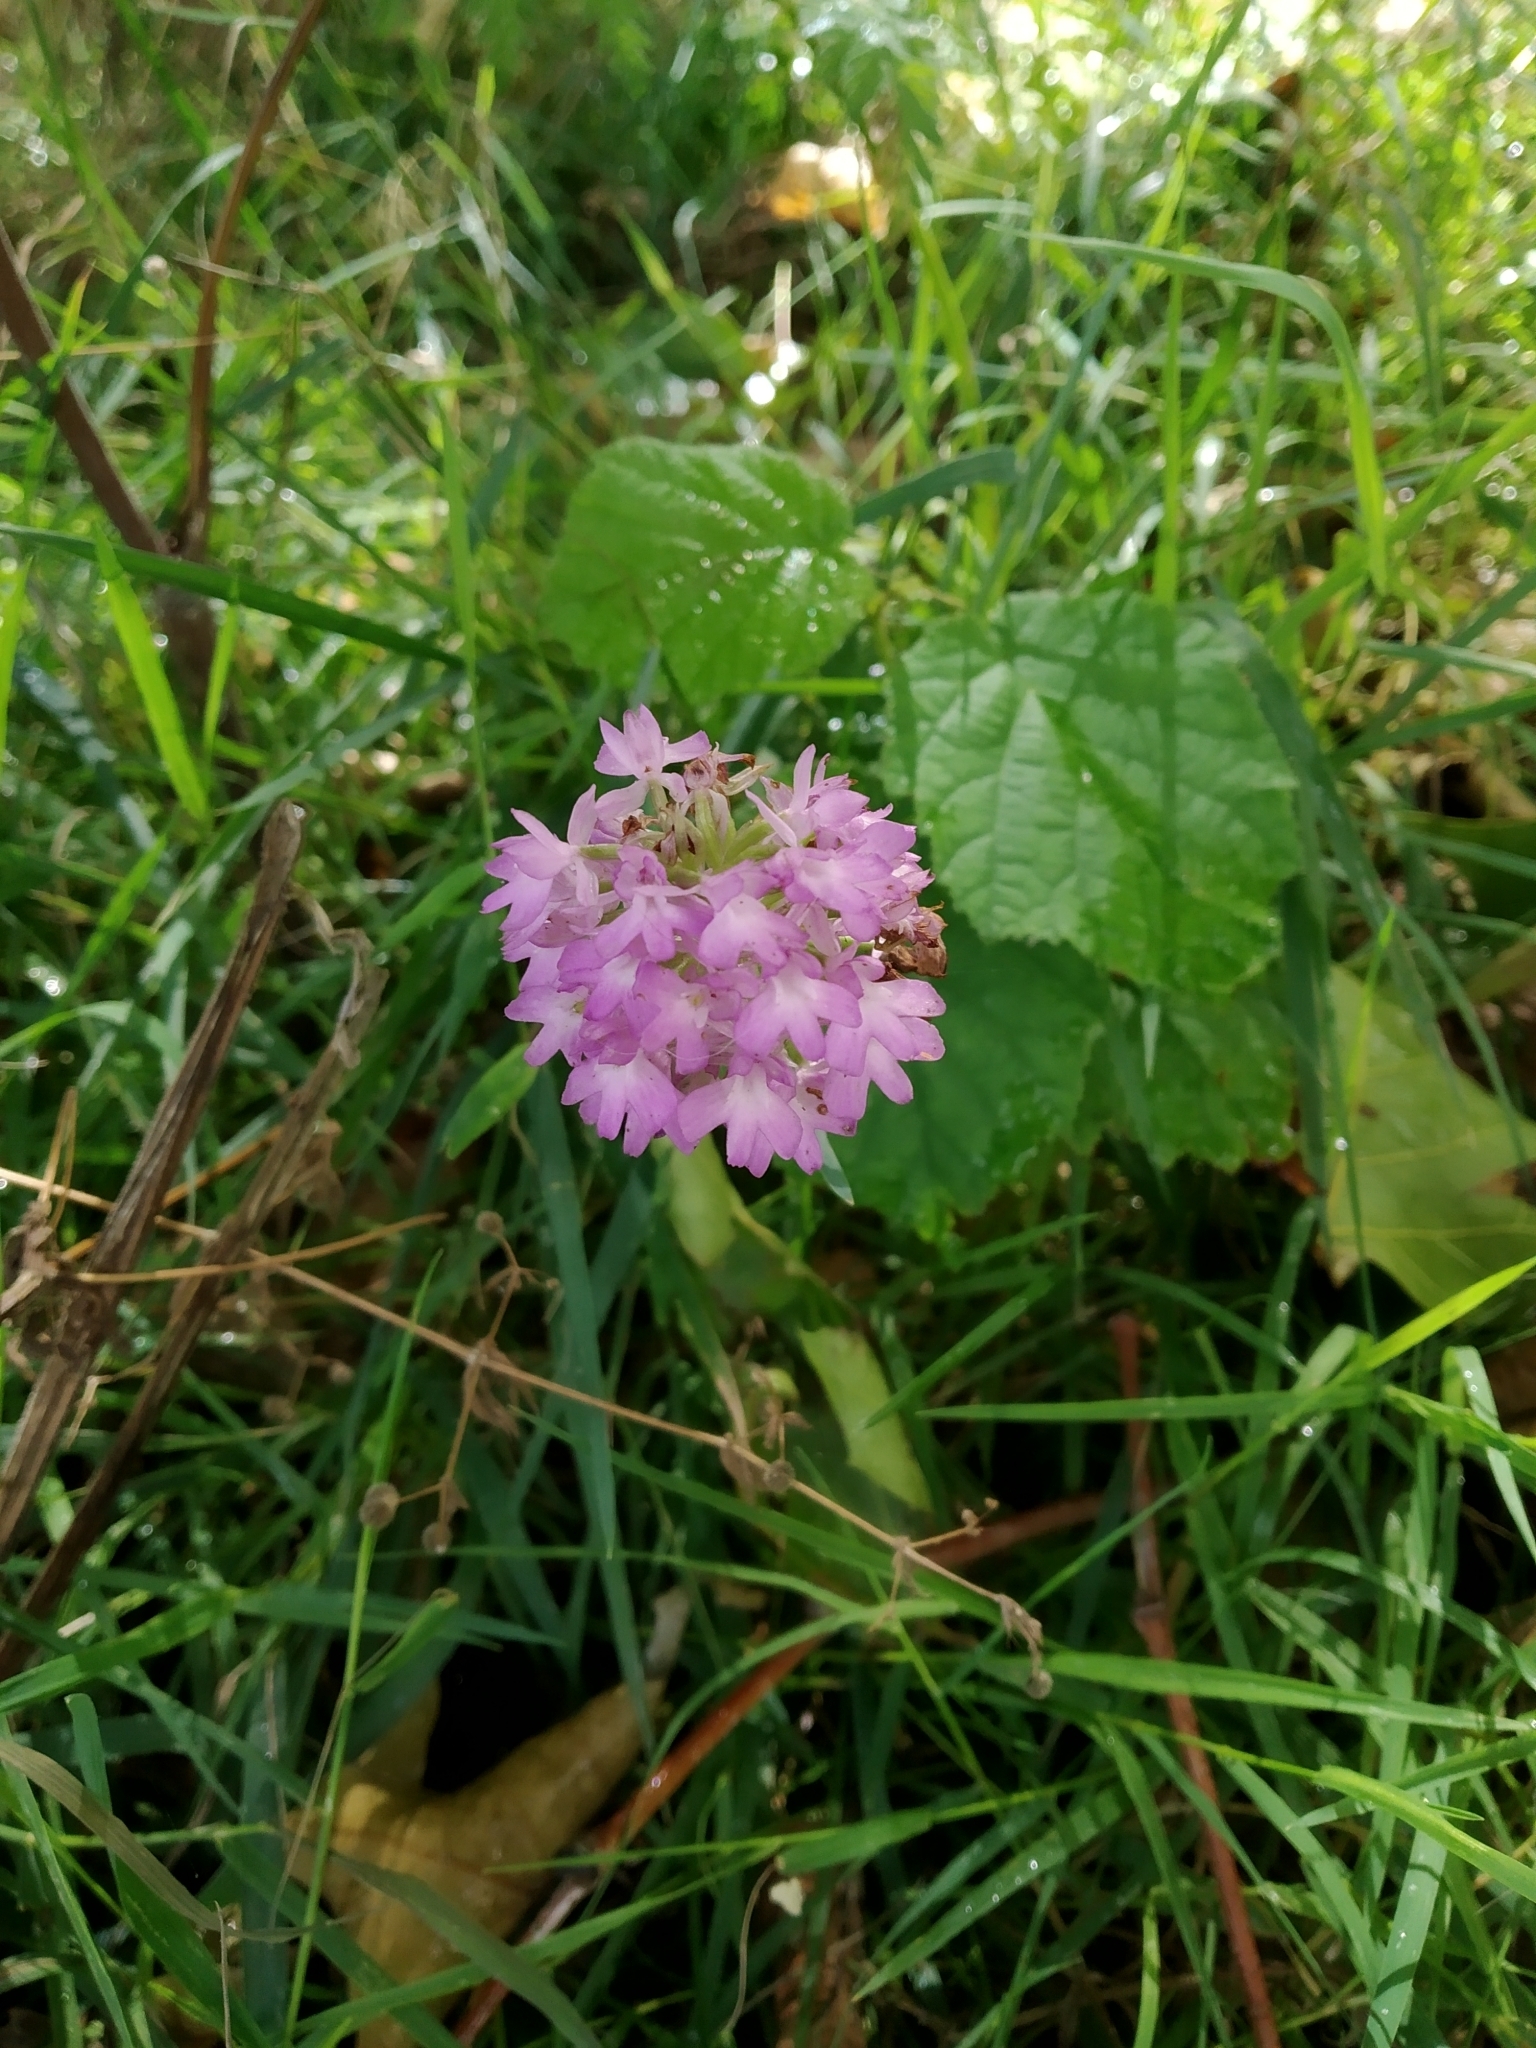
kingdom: Plantae
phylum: Tracheophyta
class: Liliopsida
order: Asparagales
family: Orchidaceae
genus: Anacamptis
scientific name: Anacamptis pyramidalis
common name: Pyramidal orchid
